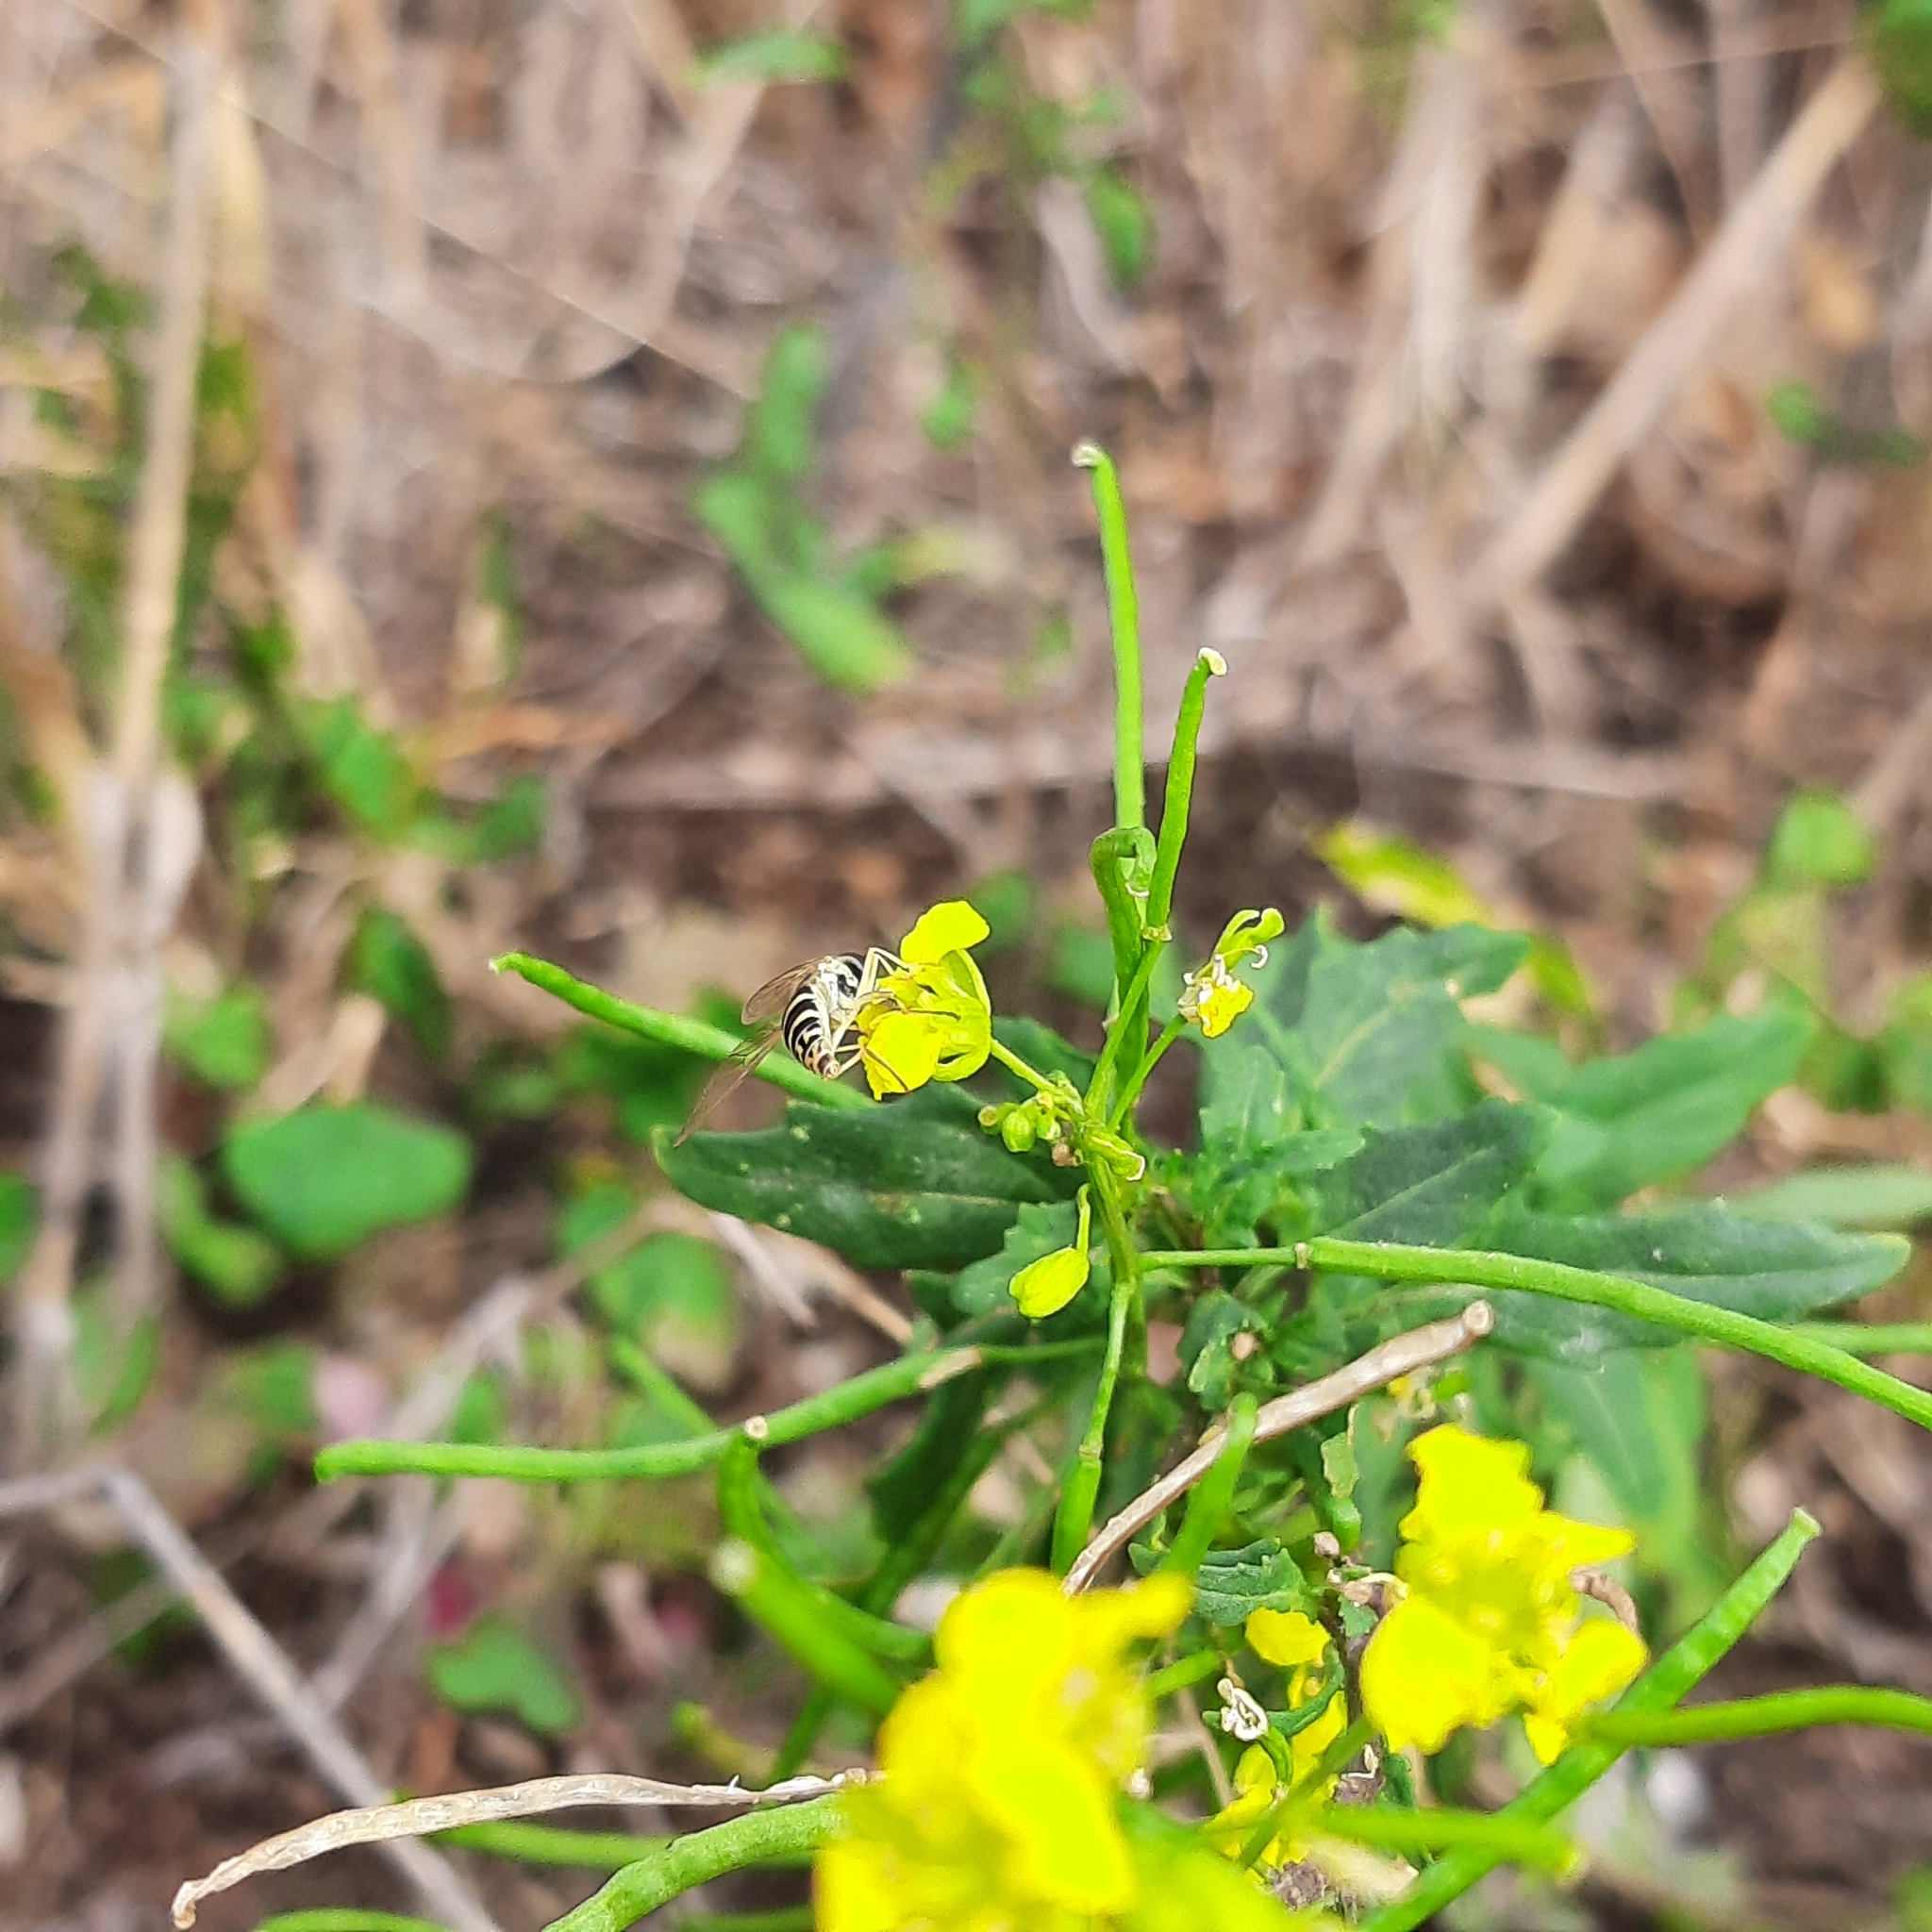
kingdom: Animalia
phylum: Arthropoda
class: Insecta
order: Diptera
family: Syrphidae
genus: Sphaerophoria
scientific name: Sphaerophoria
